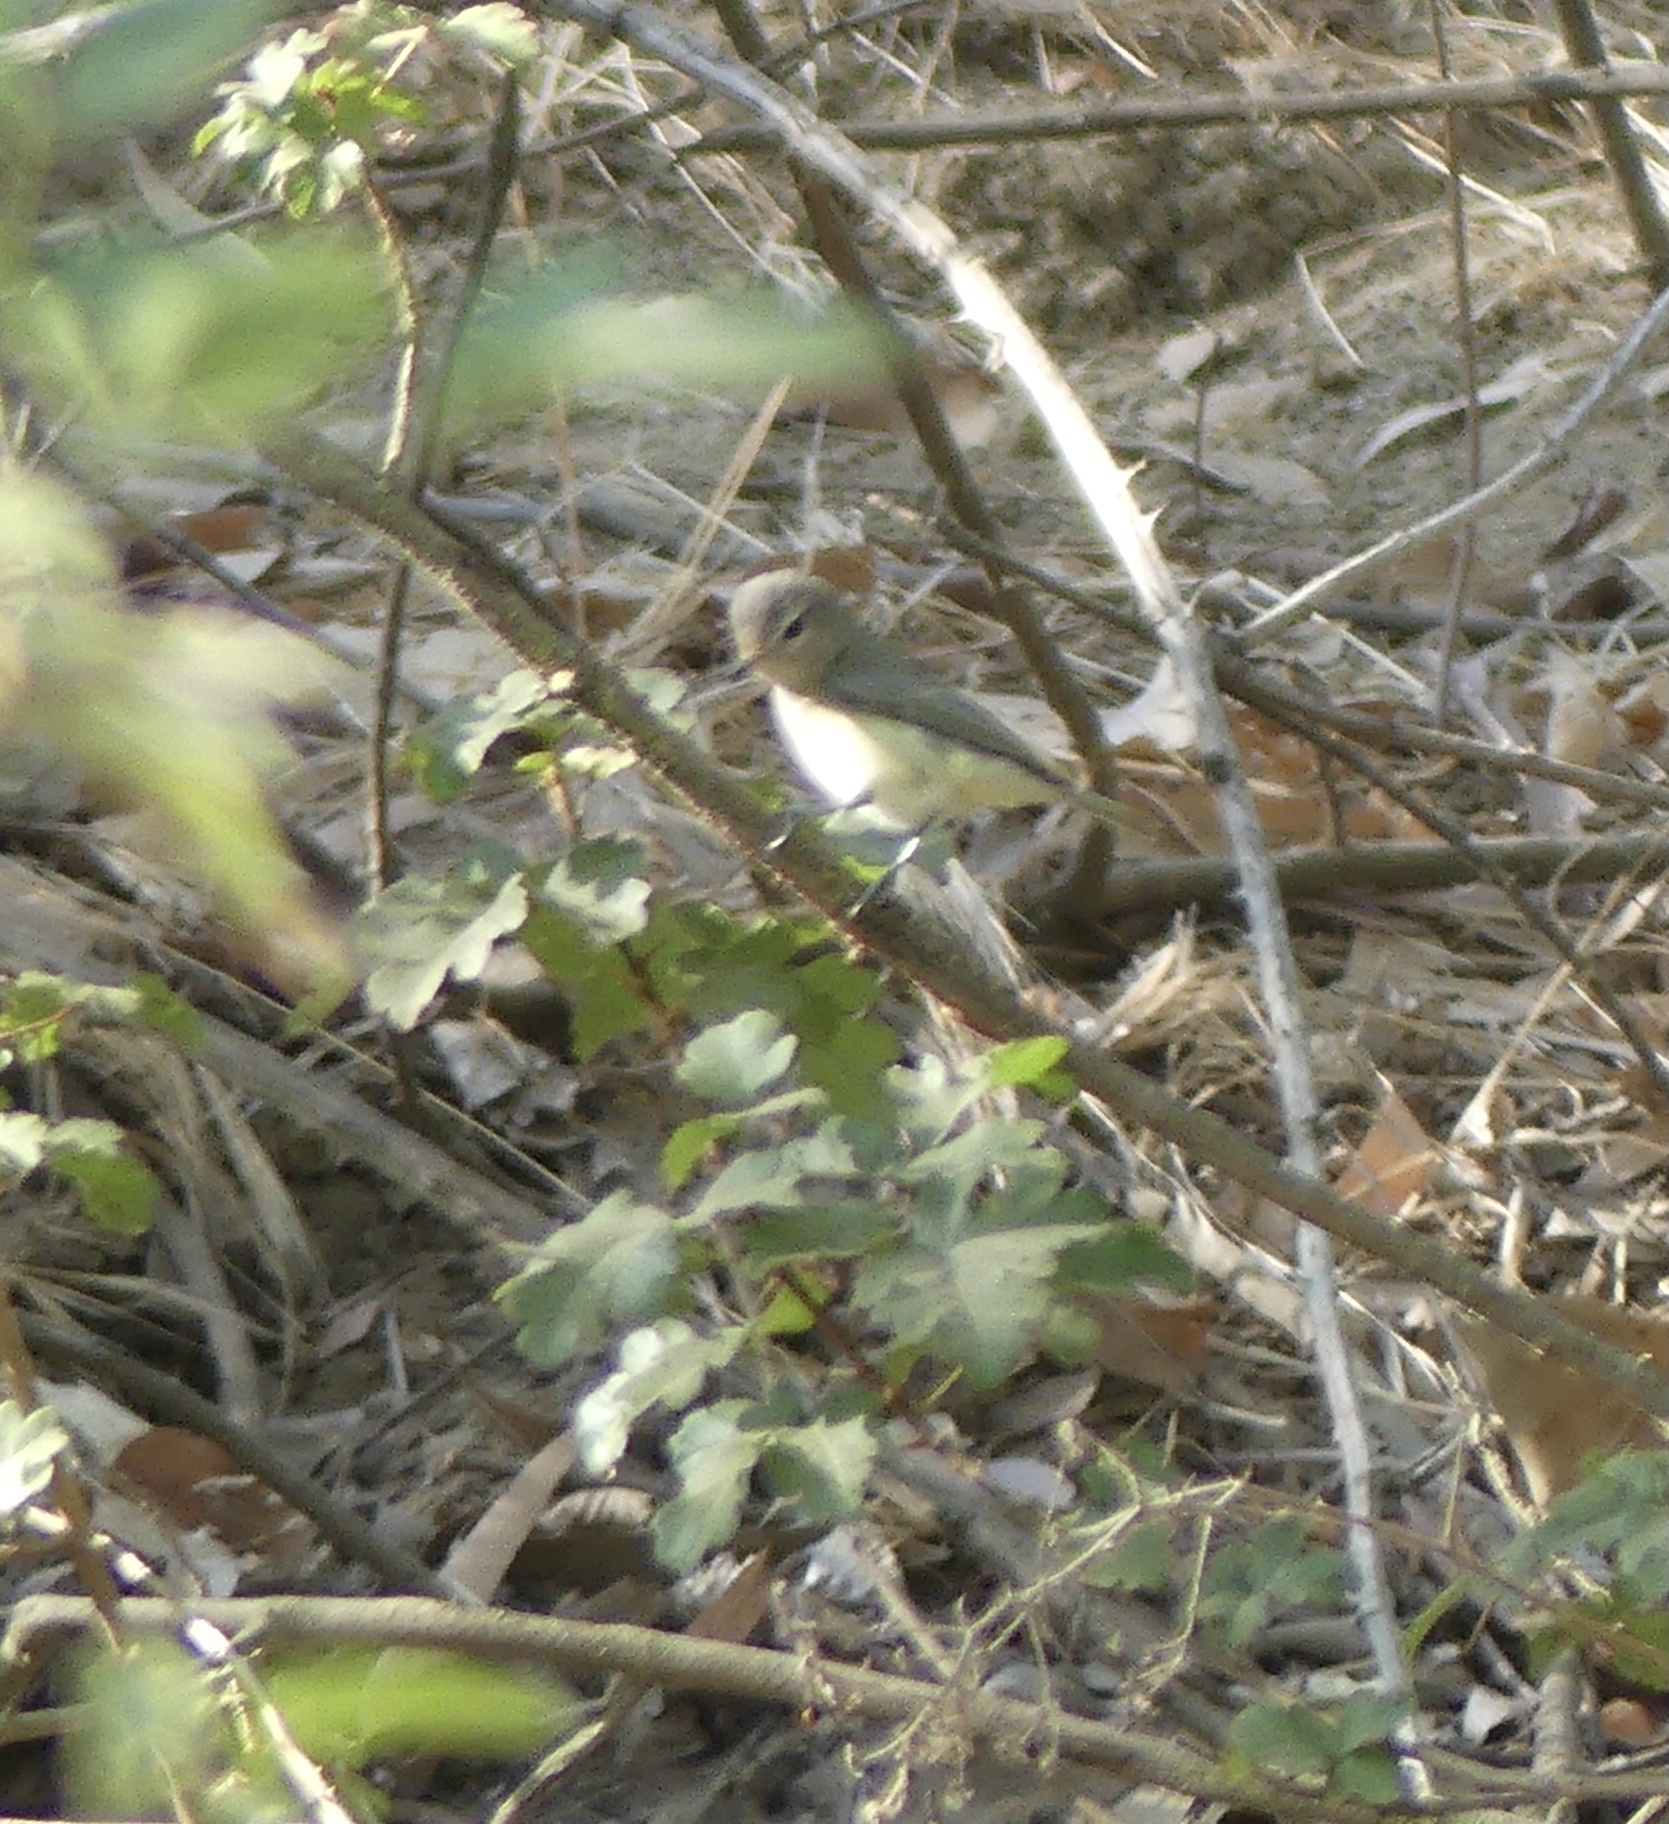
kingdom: Animalia
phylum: Chordata
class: Aves
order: Passeriformes
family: Vireonidae
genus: Vireo
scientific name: Vireo gilvus
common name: Warbling vireo
